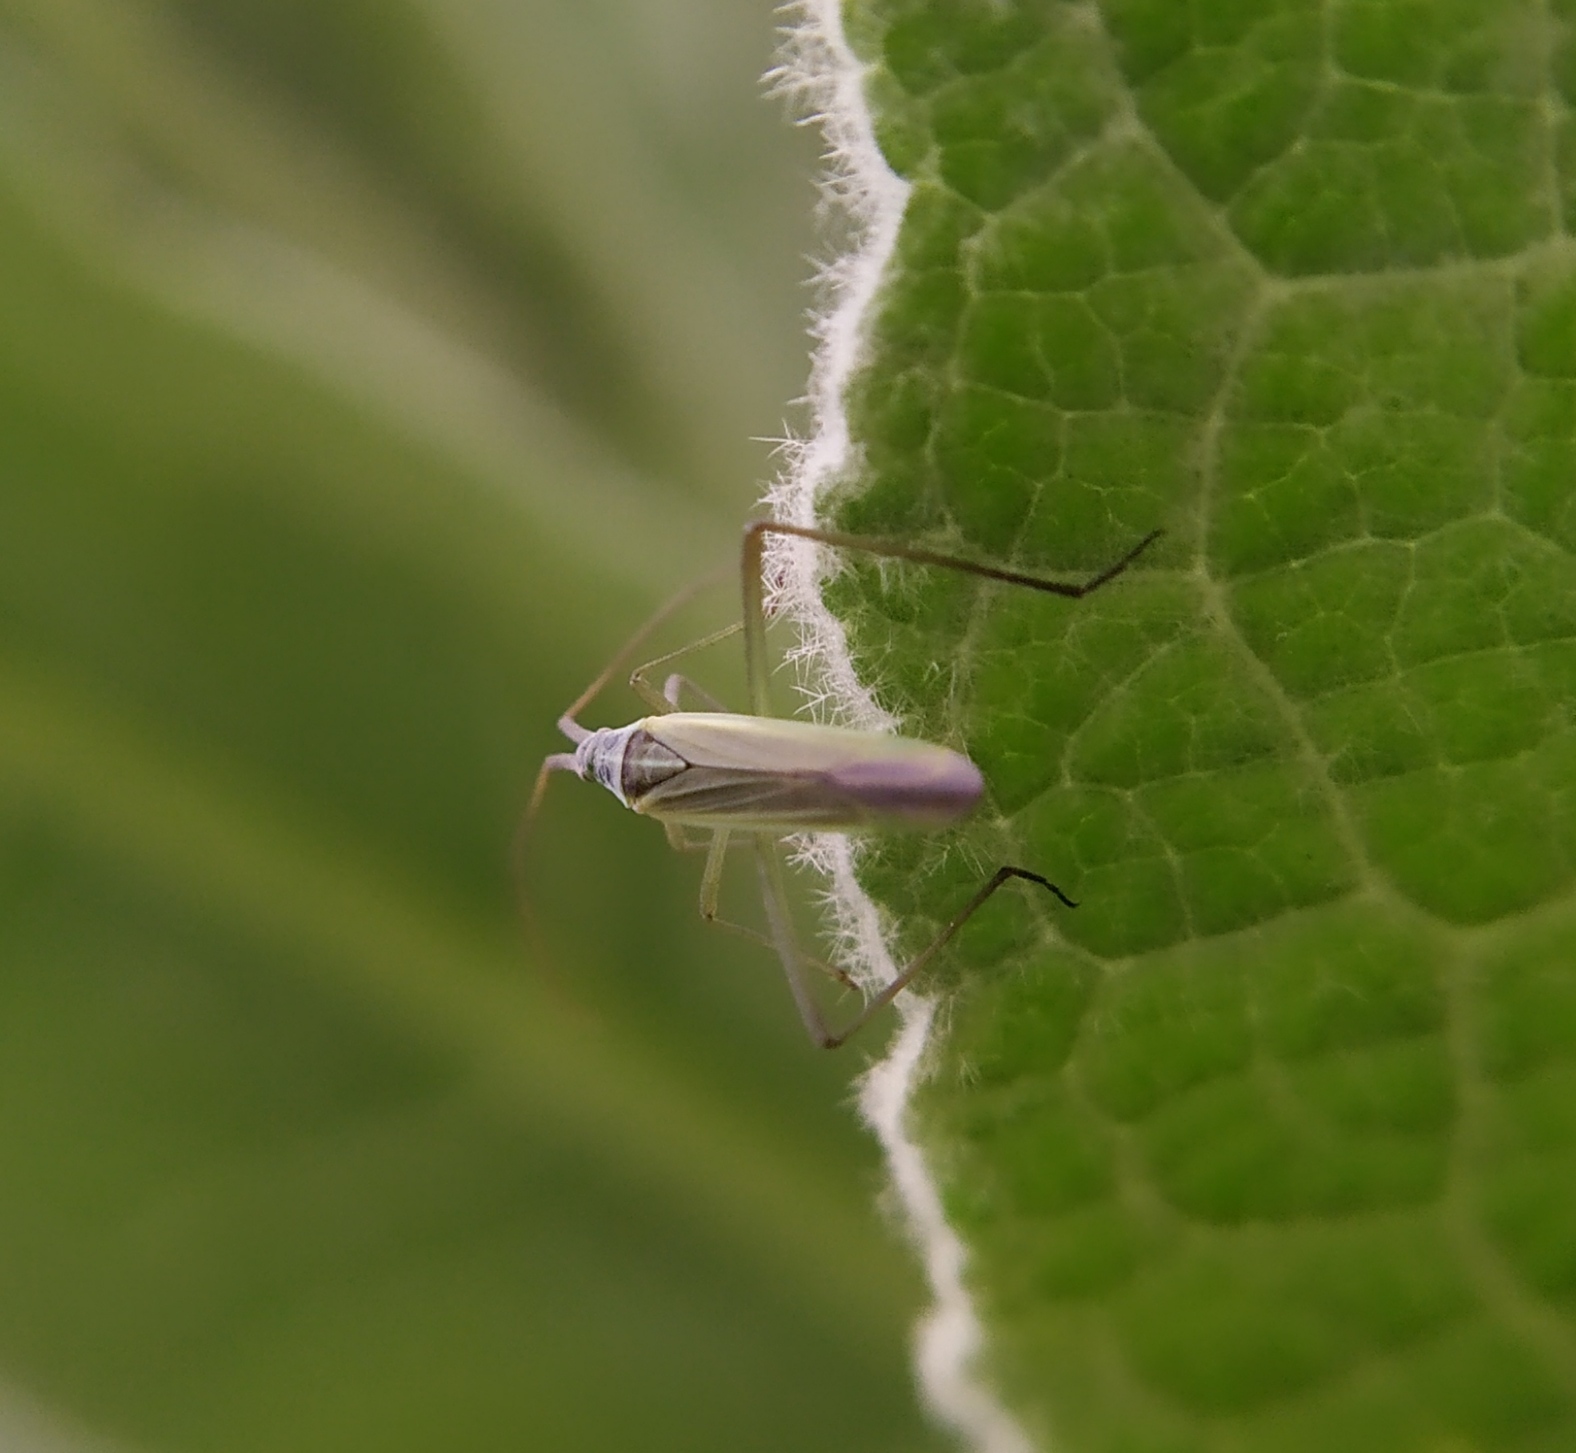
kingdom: Animalia
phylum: Arthropoda
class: Insecta
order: Hemiptera
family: Miridae
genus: Megaloceroea
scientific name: Megaloceroea recticornis
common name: Plant bug
